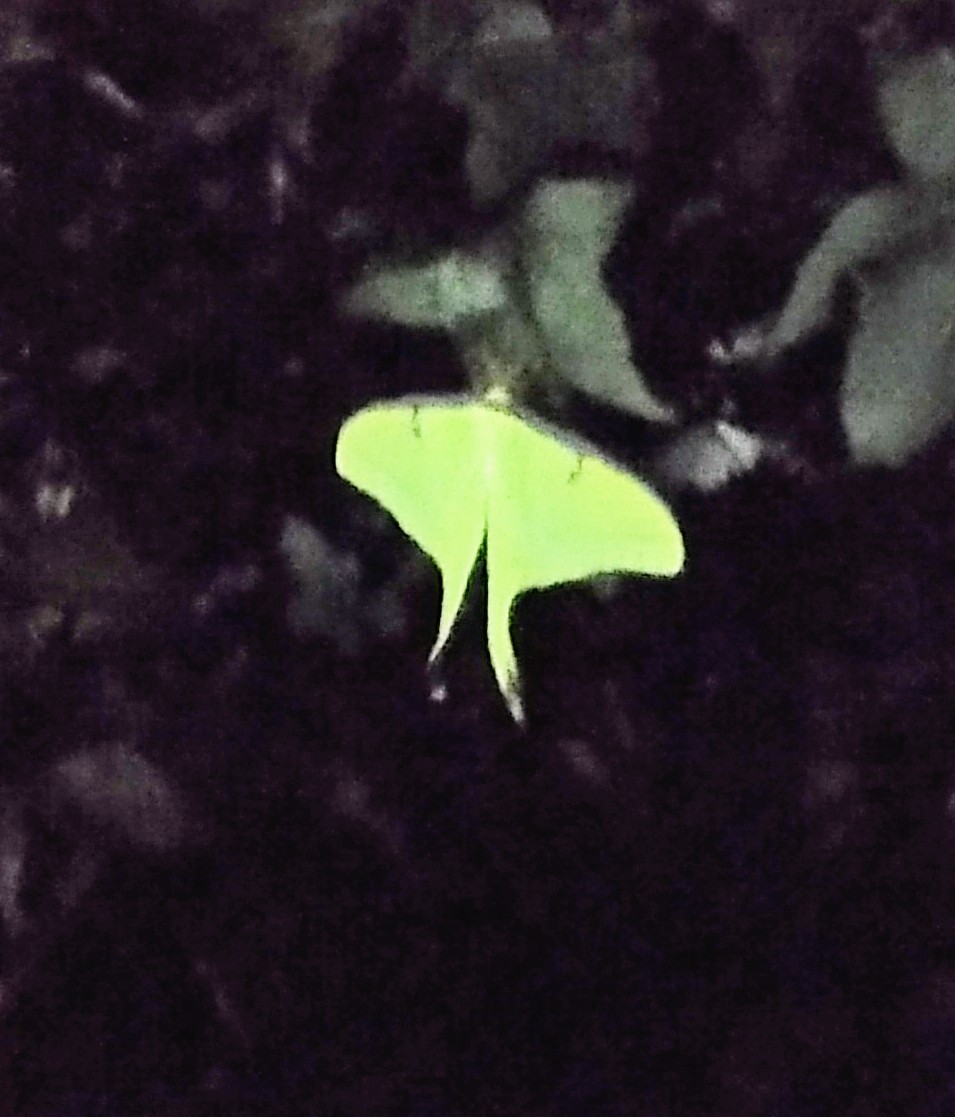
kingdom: Animalia
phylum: Arthropoda
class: Insecta
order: Lepidoptera
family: Saturniidae
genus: Actias
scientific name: Actias luna
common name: Luna moth
